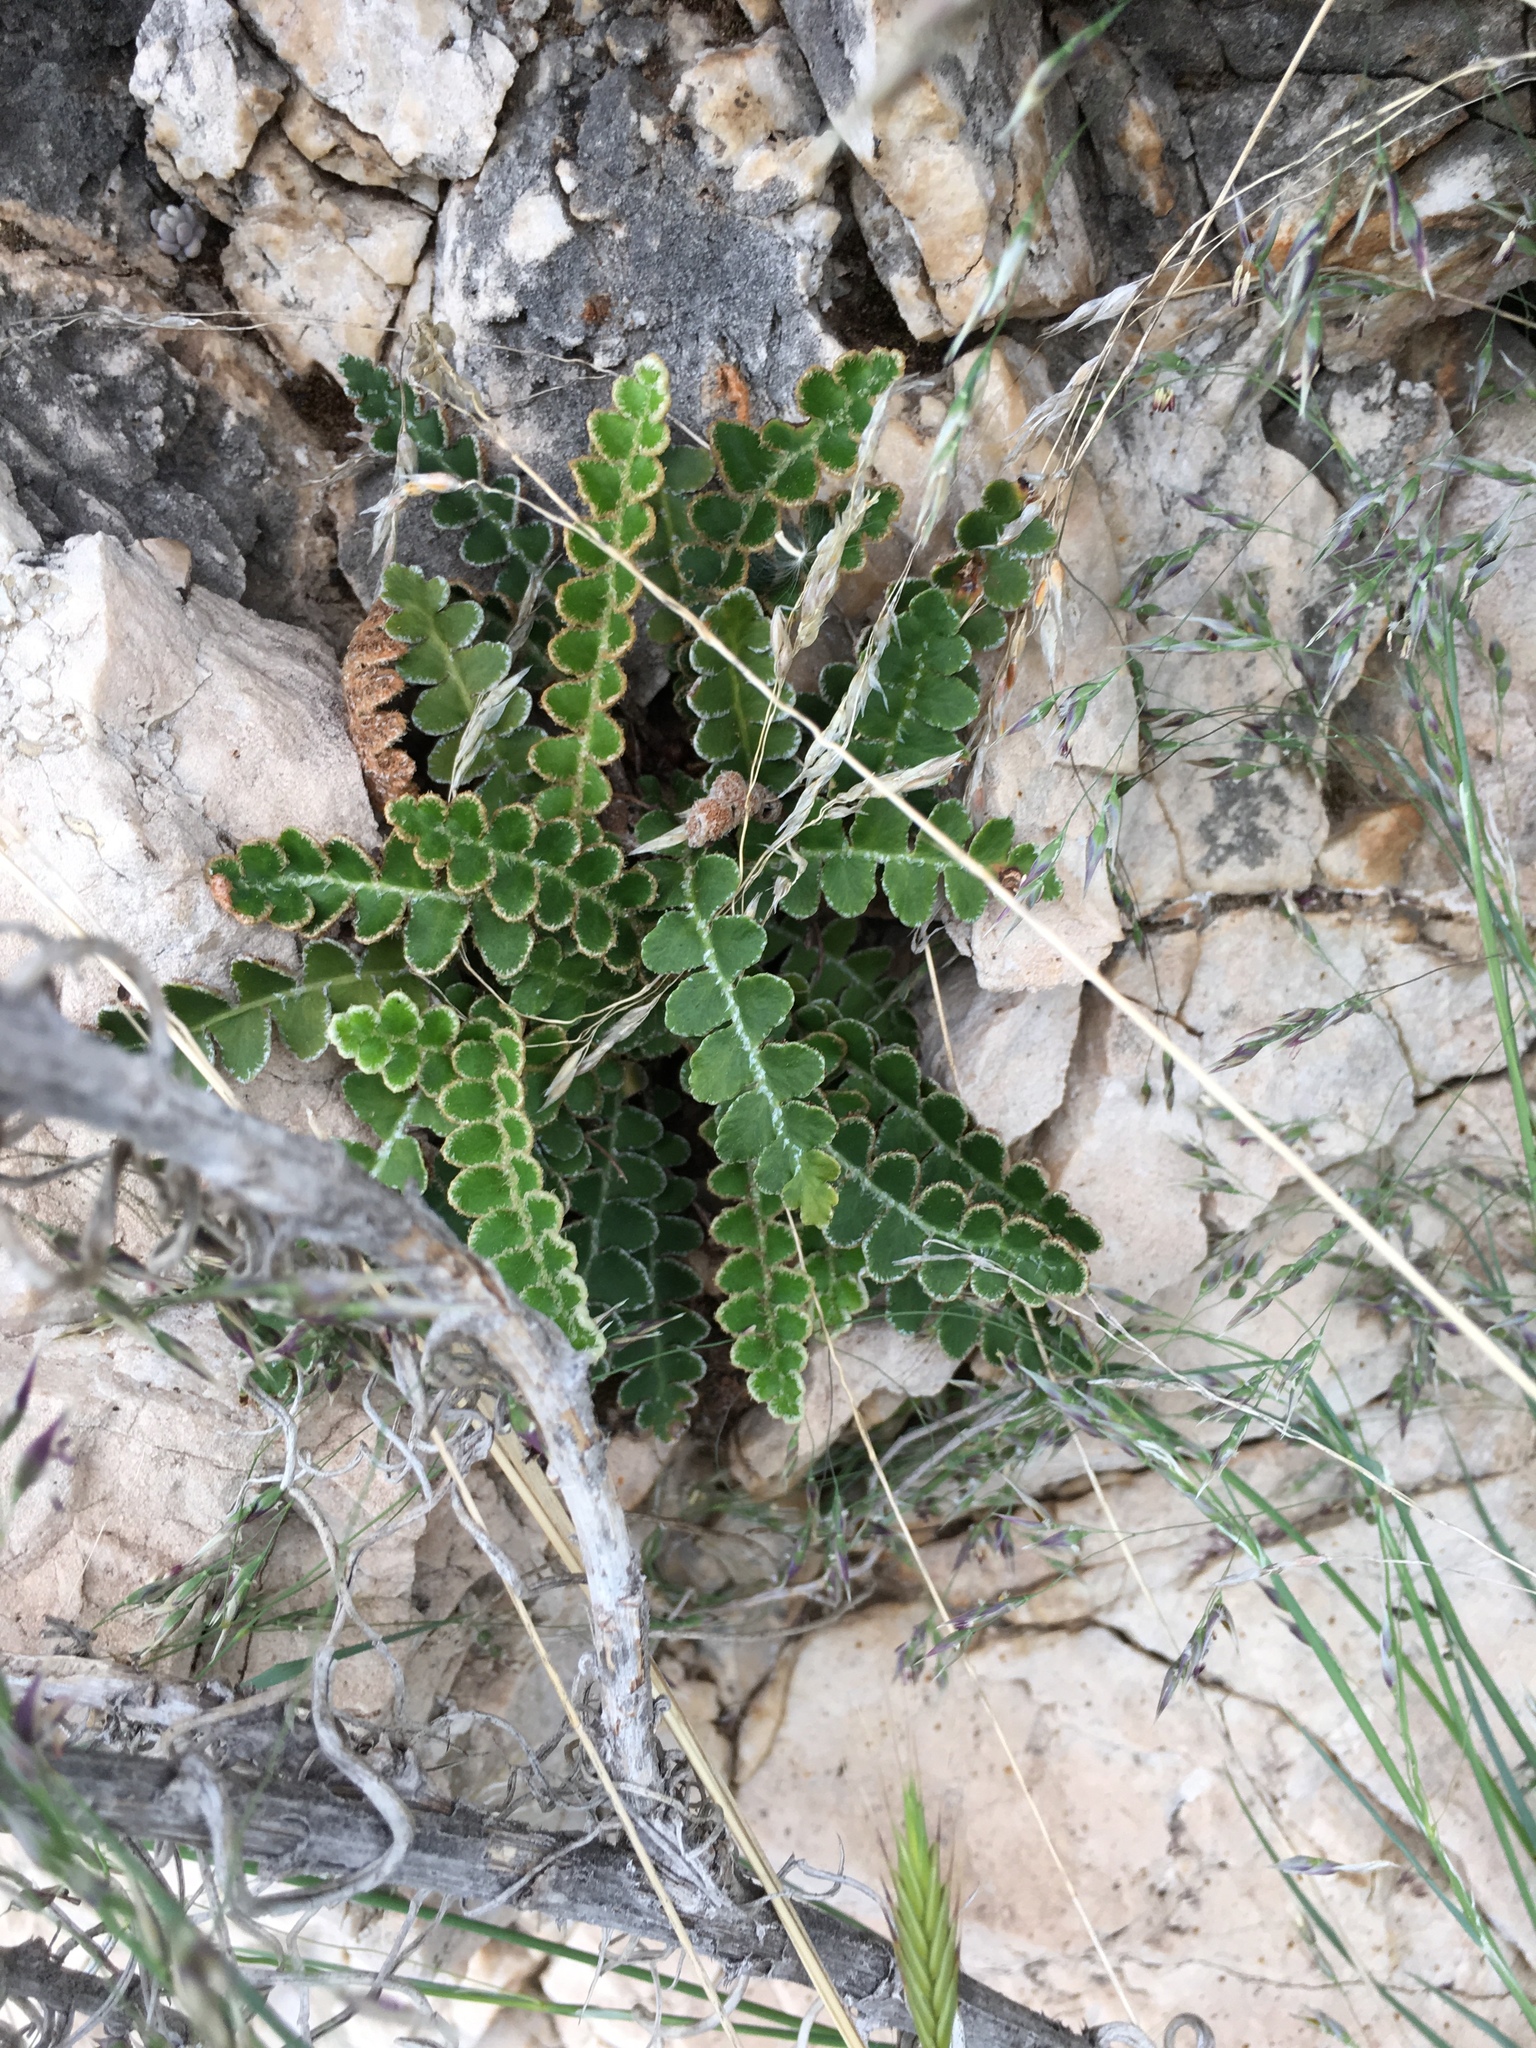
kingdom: Plantae
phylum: Tracheophyta
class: Polypodiopsida
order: Polypodiales
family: Aspleniaceae
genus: Asplenium
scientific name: Asplenium ceterach
